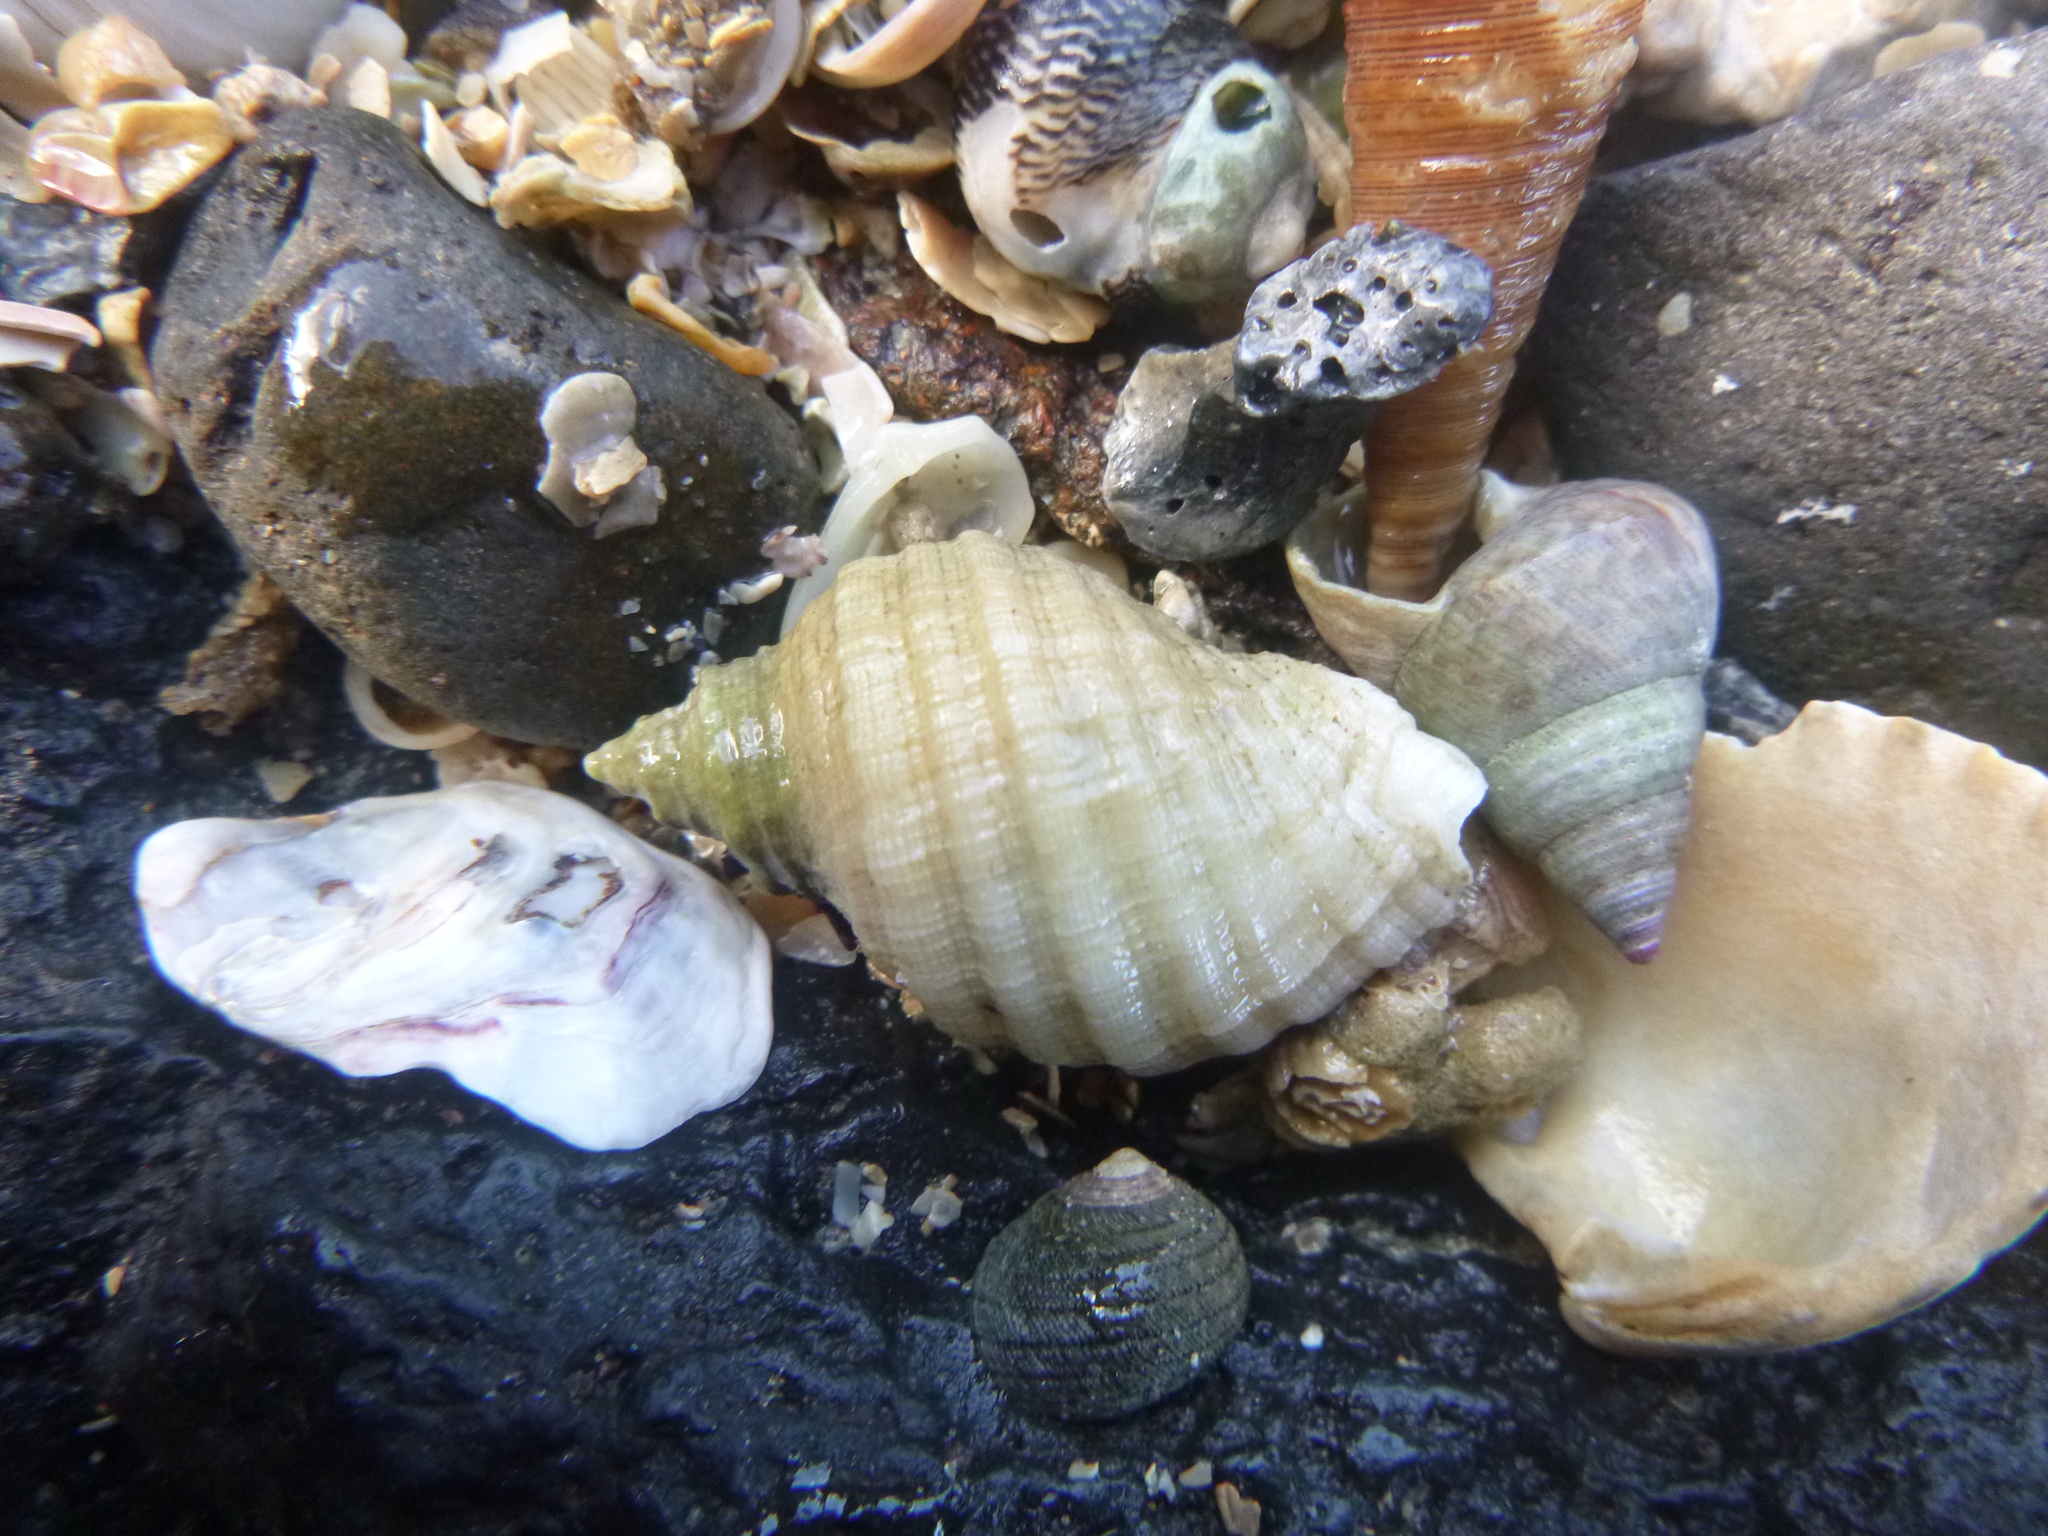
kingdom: Animalia
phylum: Mollusca
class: Gastropoda
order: Trochida
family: Trochidae
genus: Micrelenchus
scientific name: Micrelenchus purpureus
